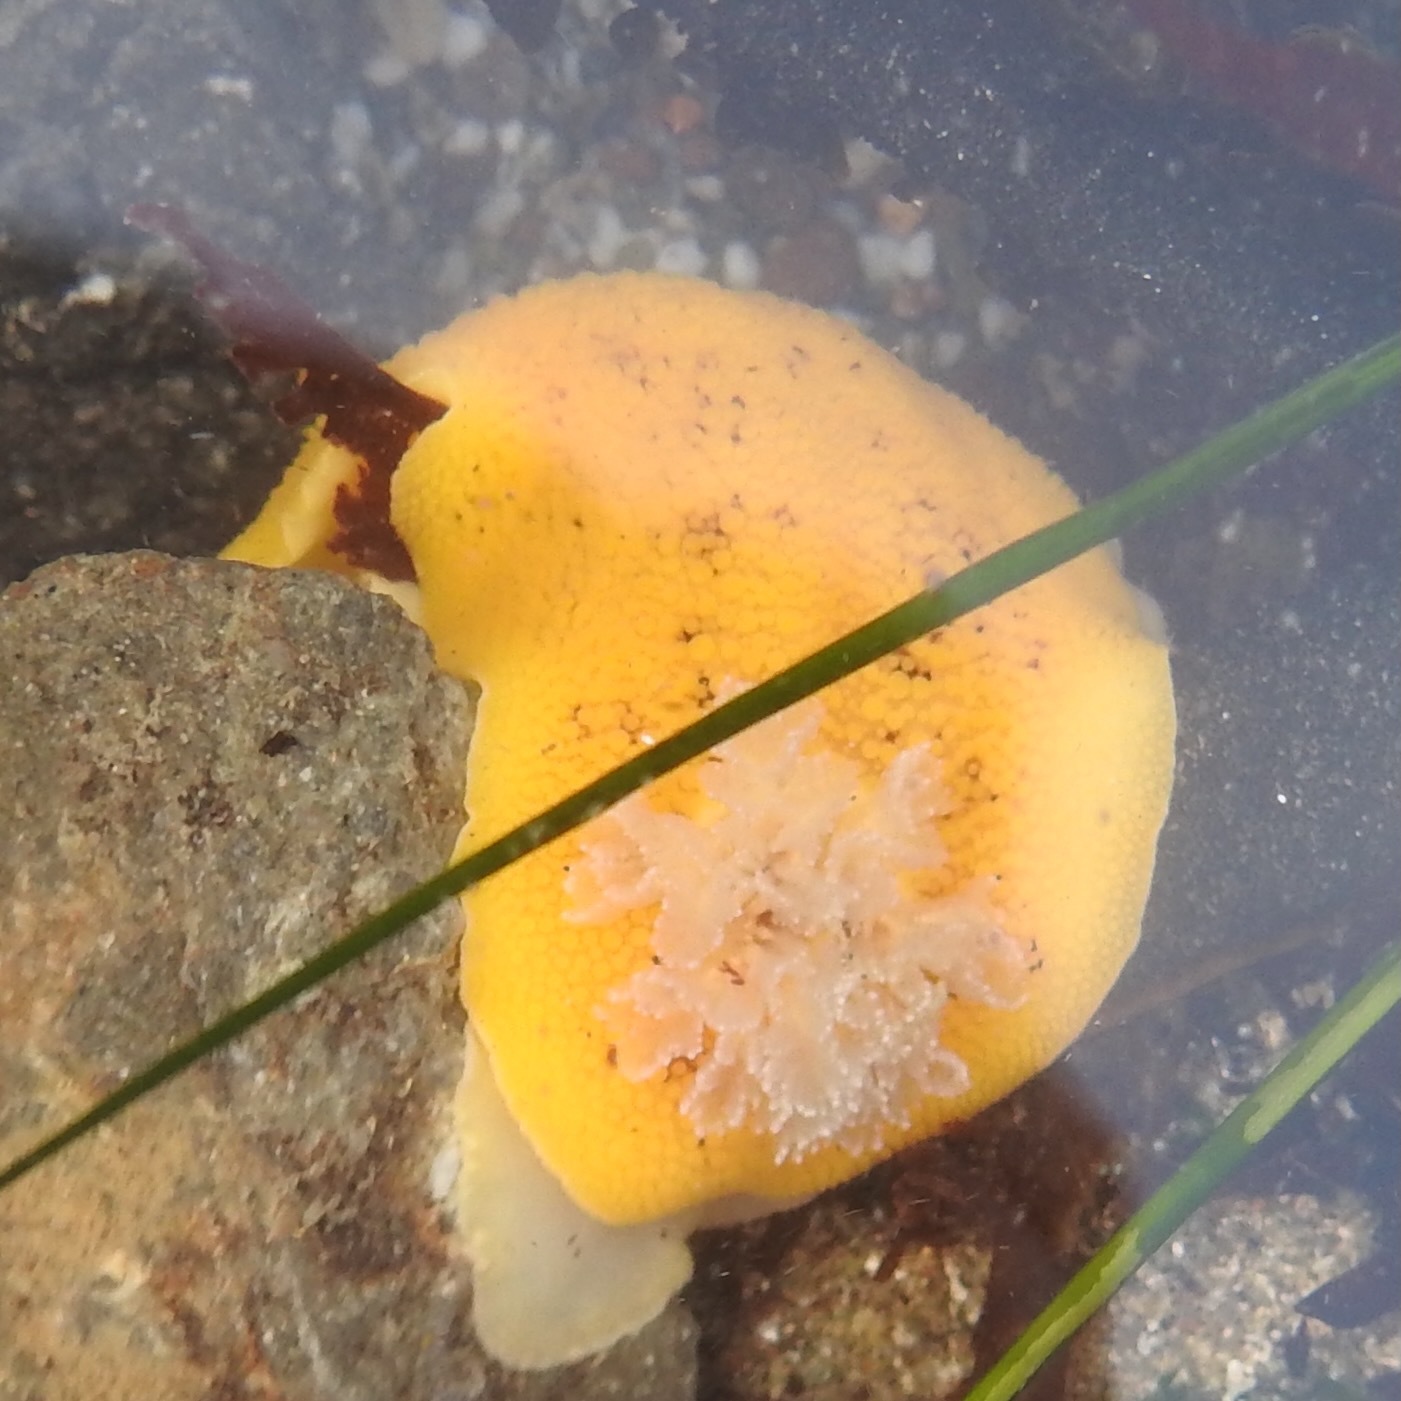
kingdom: Animalia
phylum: Mollusca
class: Gastropoda
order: Nudibranchia
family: Discodorididae
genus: Peltodoris
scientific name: Peltodoris nobilis
